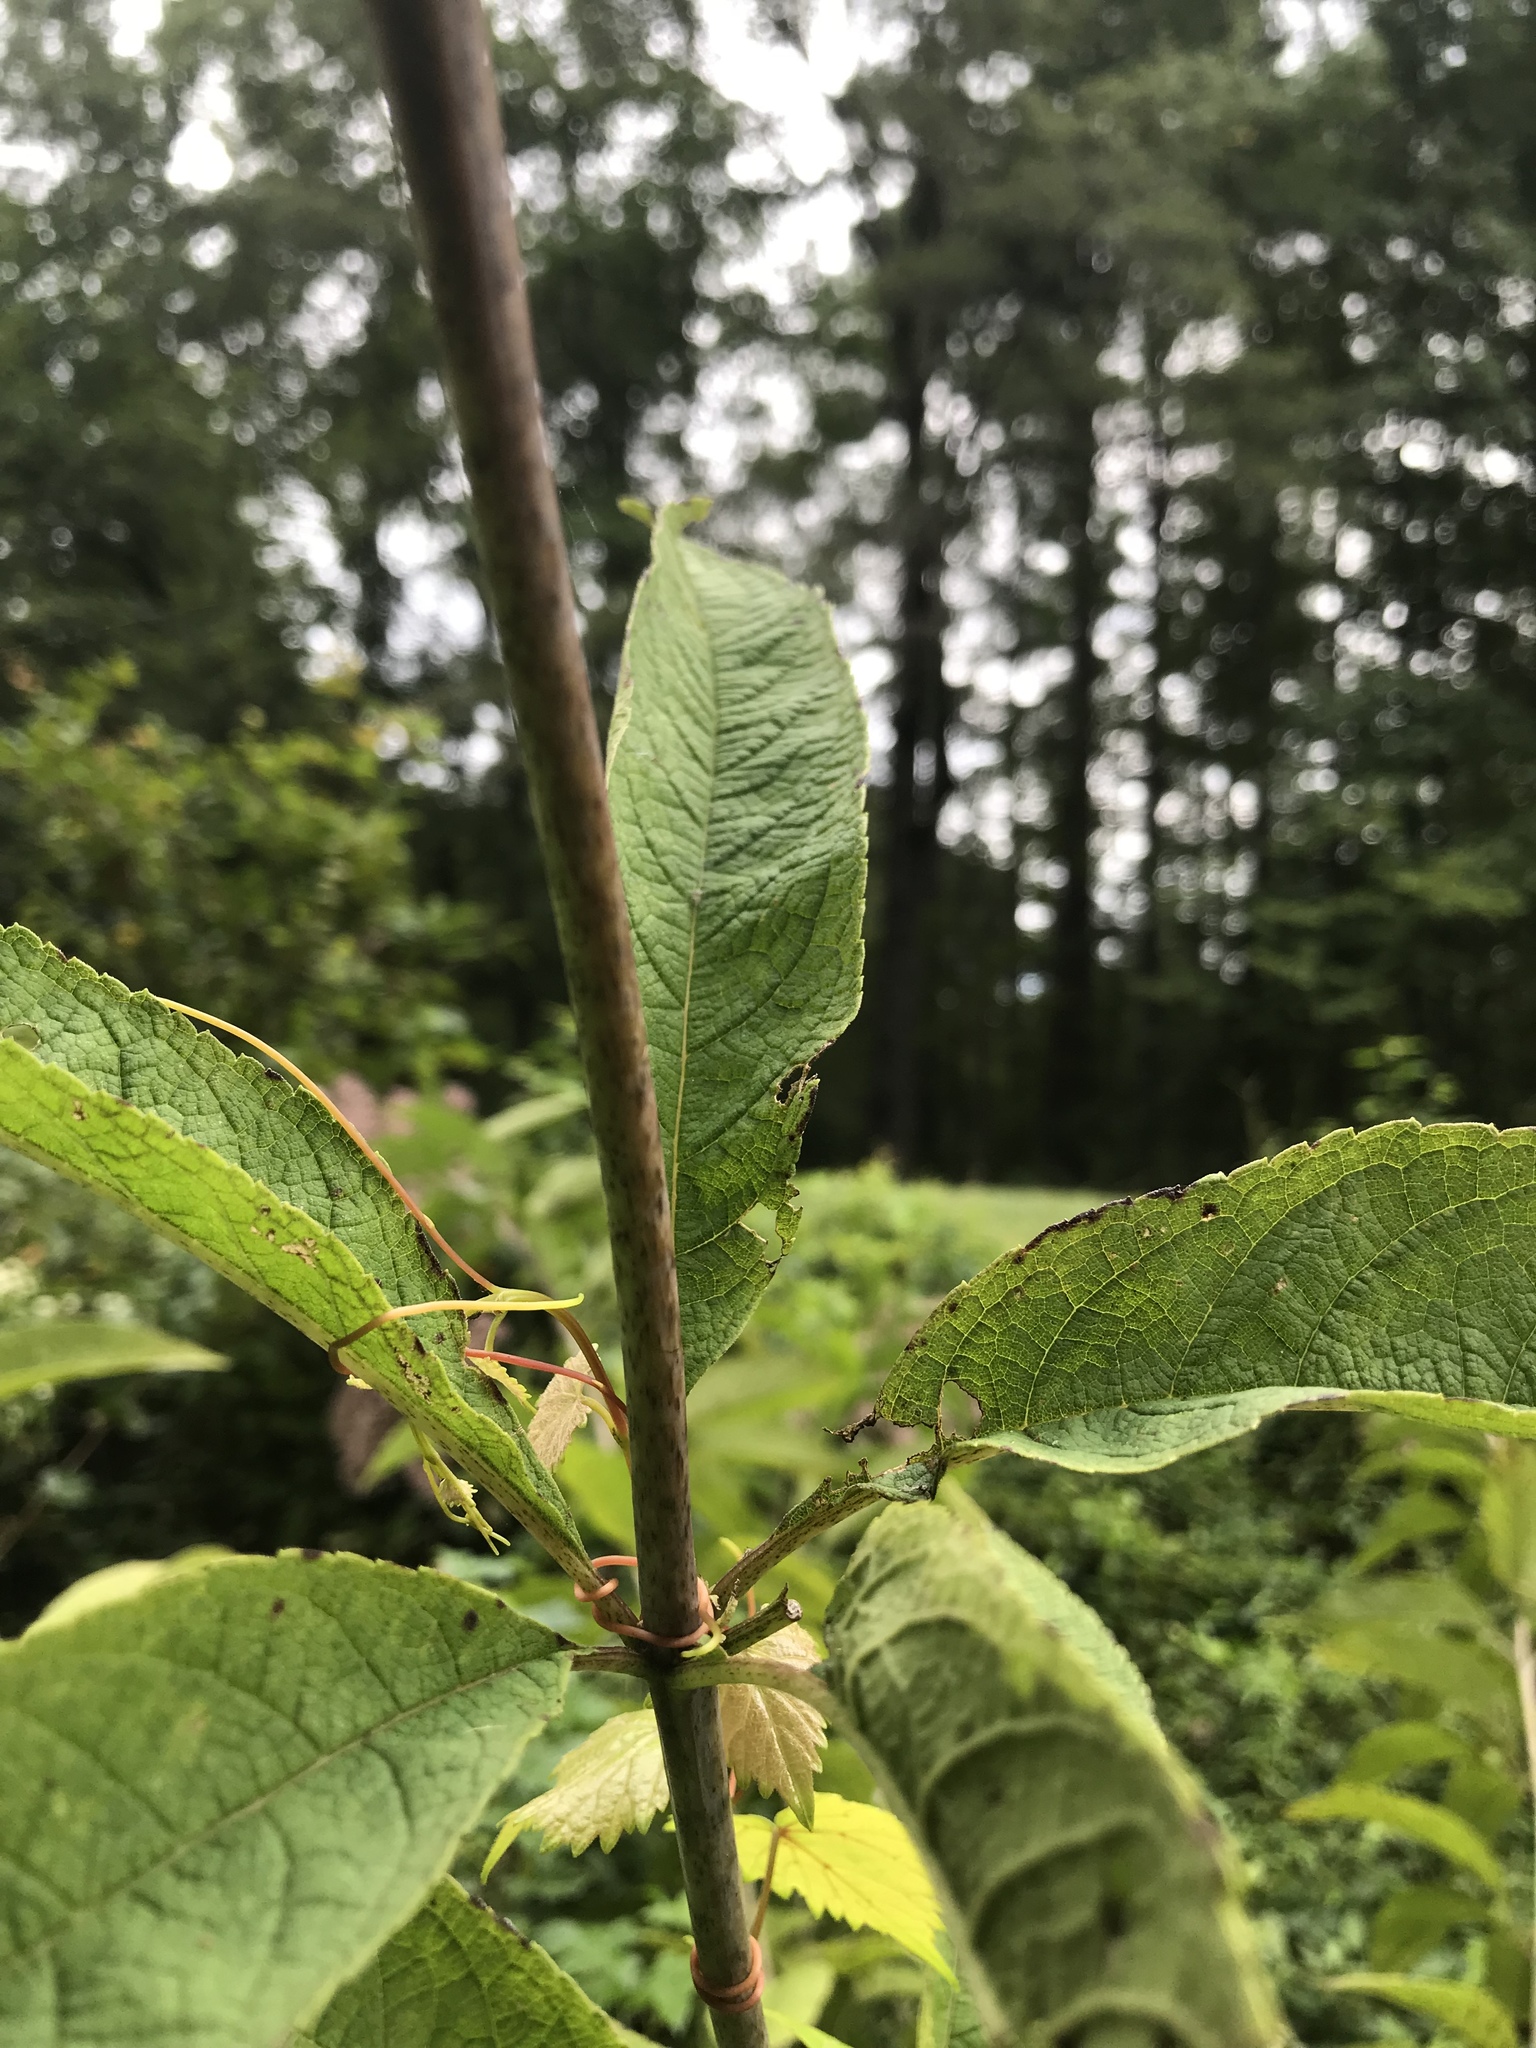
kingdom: Plantae
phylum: Tracheophyta
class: Magnoliopsida
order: Asterales
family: Asteraceae
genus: Eutrochium
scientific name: Eutrochium fistulosum
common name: Trumpetweed
